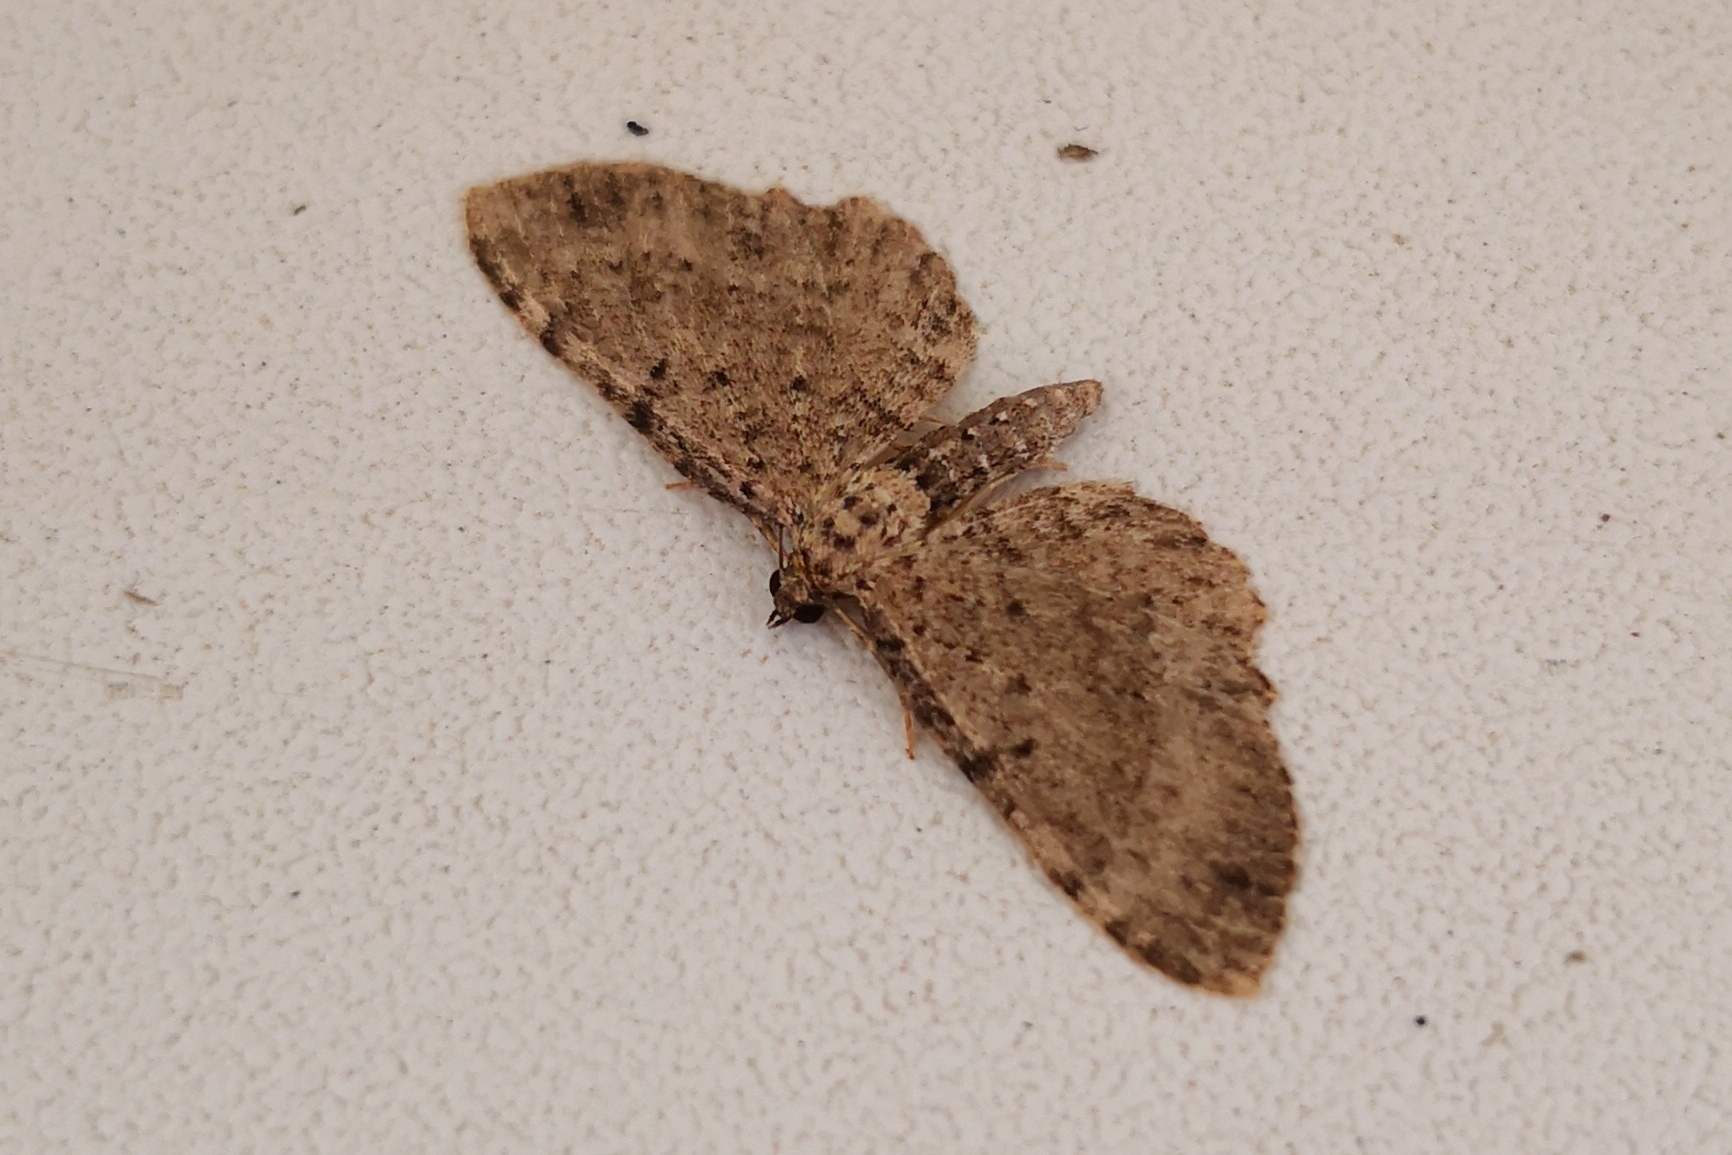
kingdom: Animalia
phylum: Arthropoda
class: Insecta
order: Lepidoptera
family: Geometridae
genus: Anticollix
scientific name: Anticollix sparsata
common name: Dentated pug
